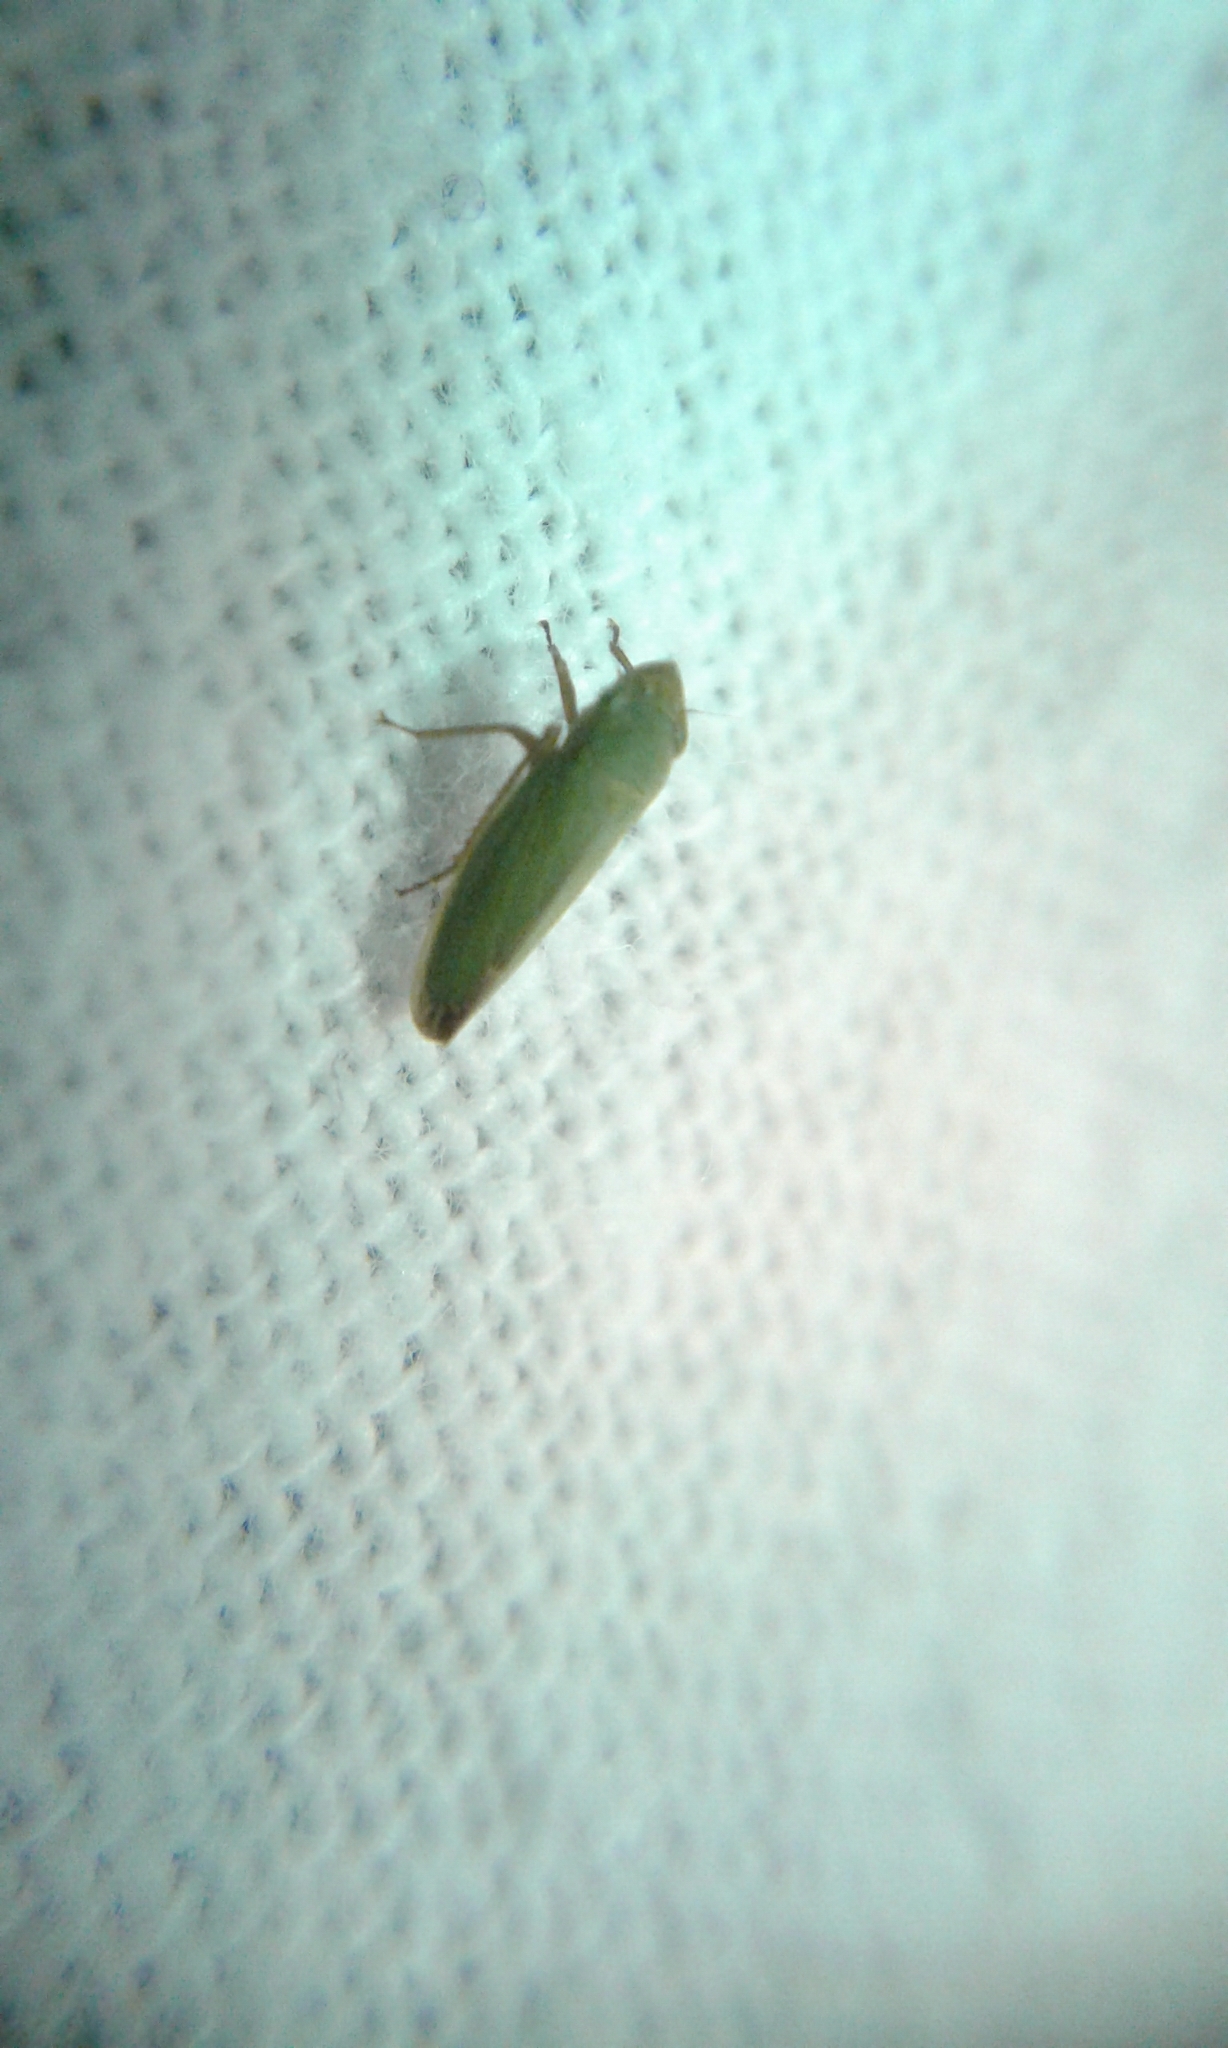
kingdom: Animalia
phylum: Arthropoda
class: Insecta
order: Hemiptera
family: Cicadellidae
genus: Helochara
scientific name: Helochara communis
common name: Bog leafhopper
